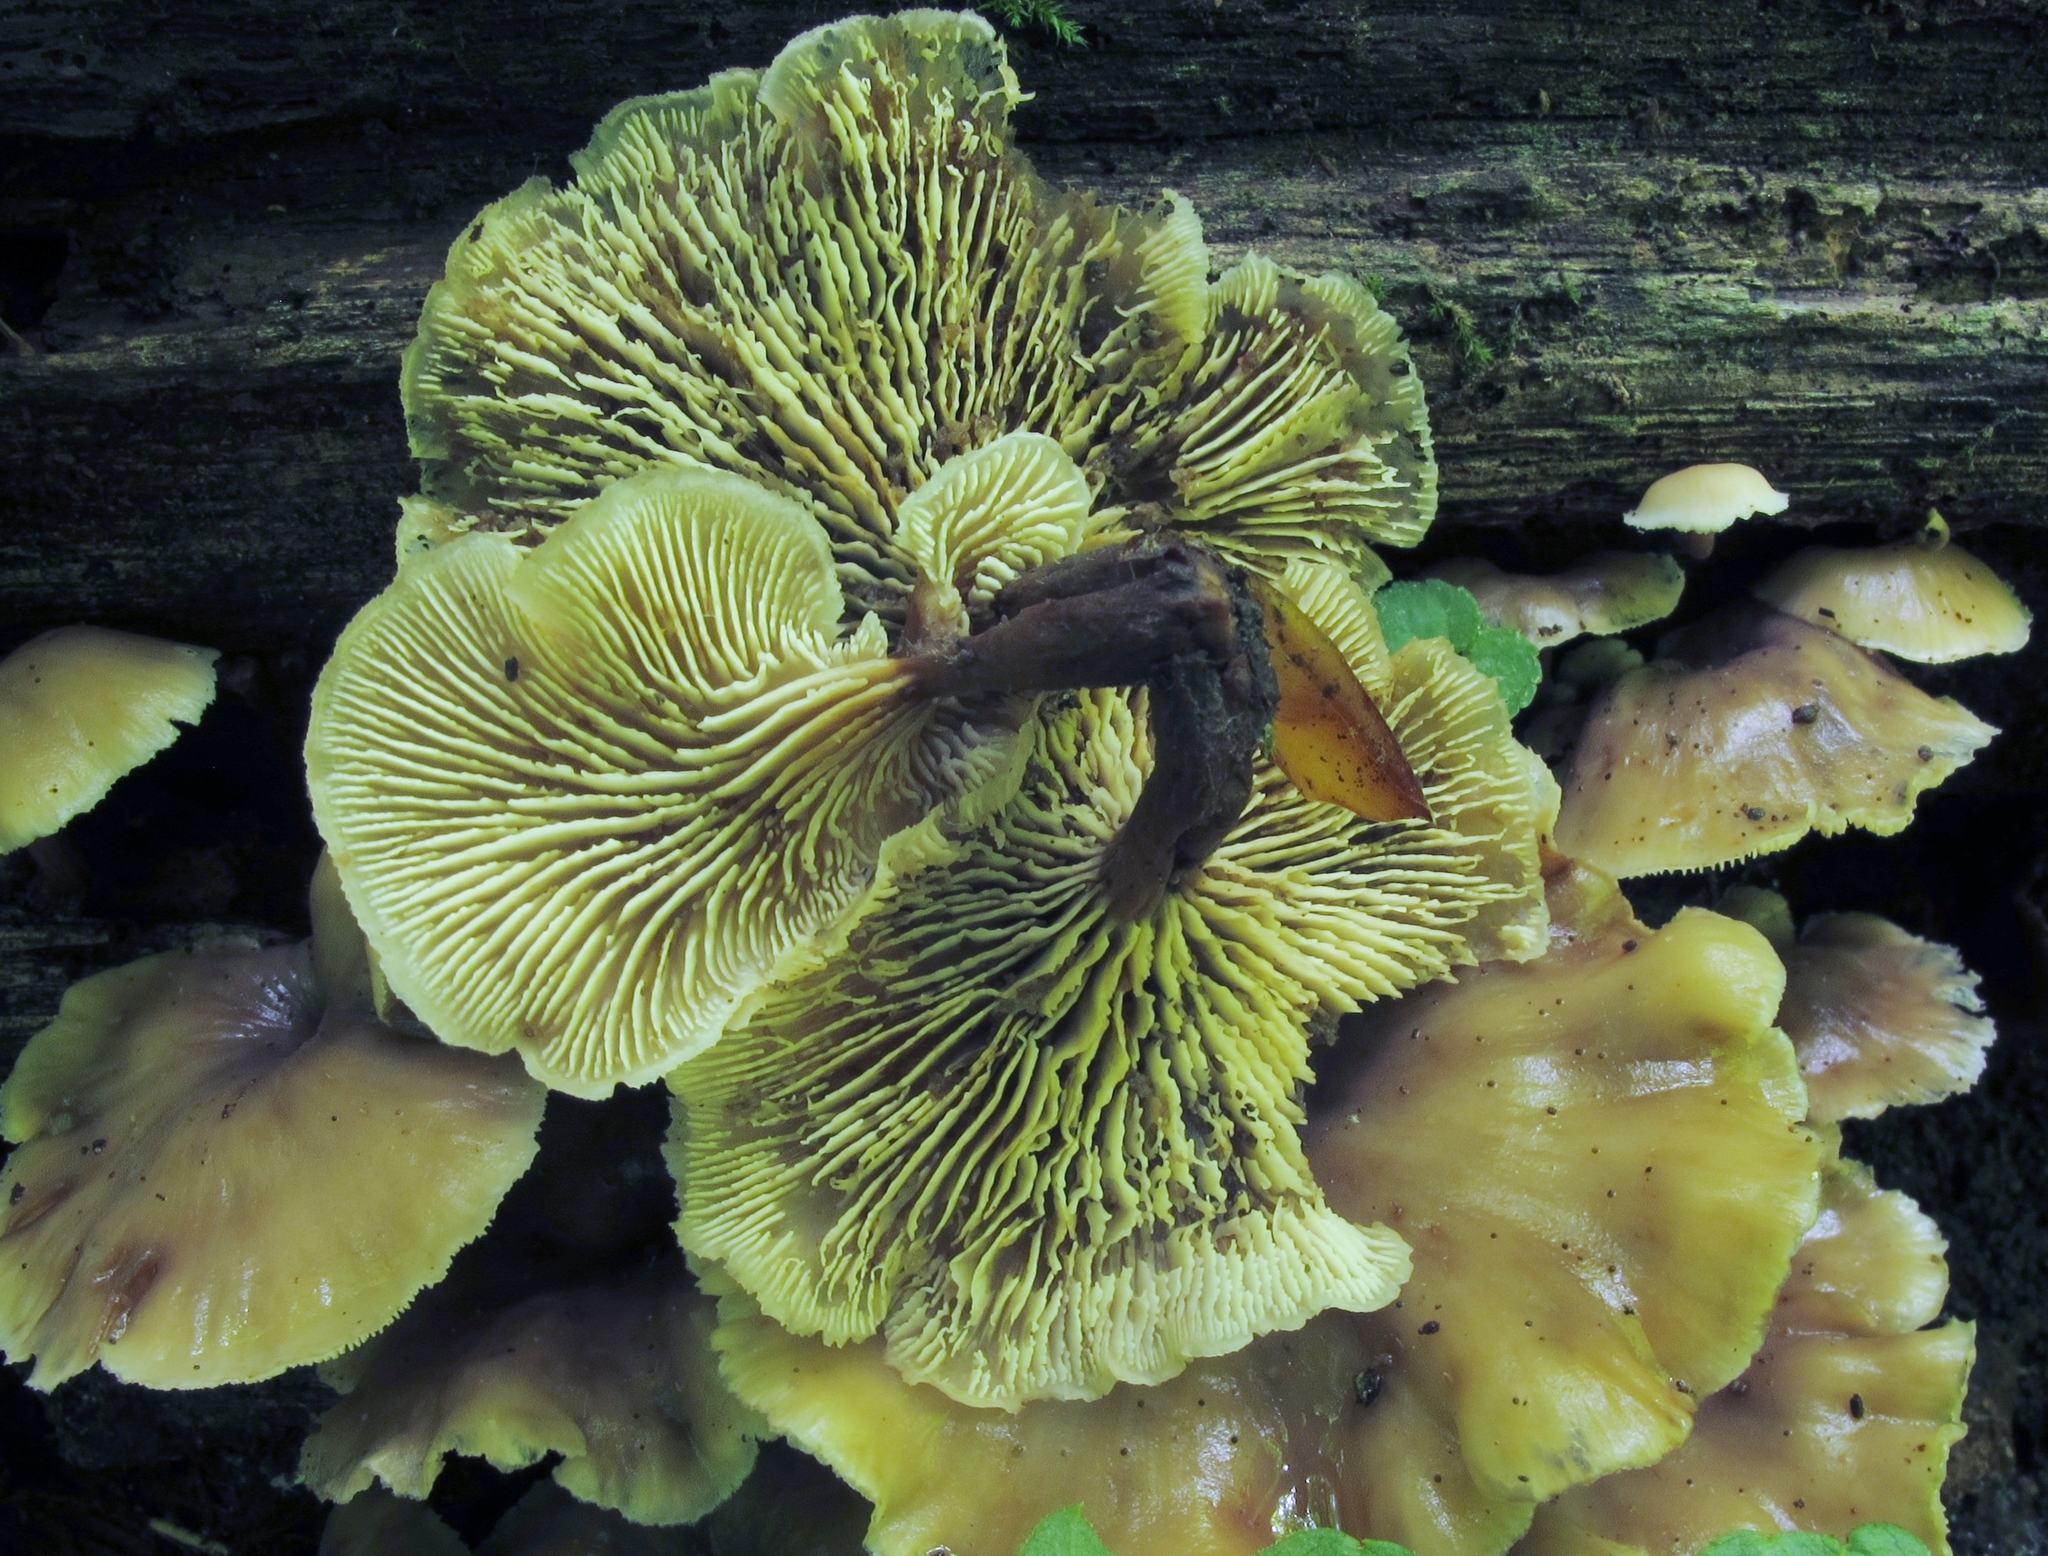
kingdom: Fungi
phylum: Basidiomycota
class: Agaricomycetes
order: Russulales
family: Auriscalpiaceae
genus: Lentinellus
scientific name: Lentinellus micheneri
